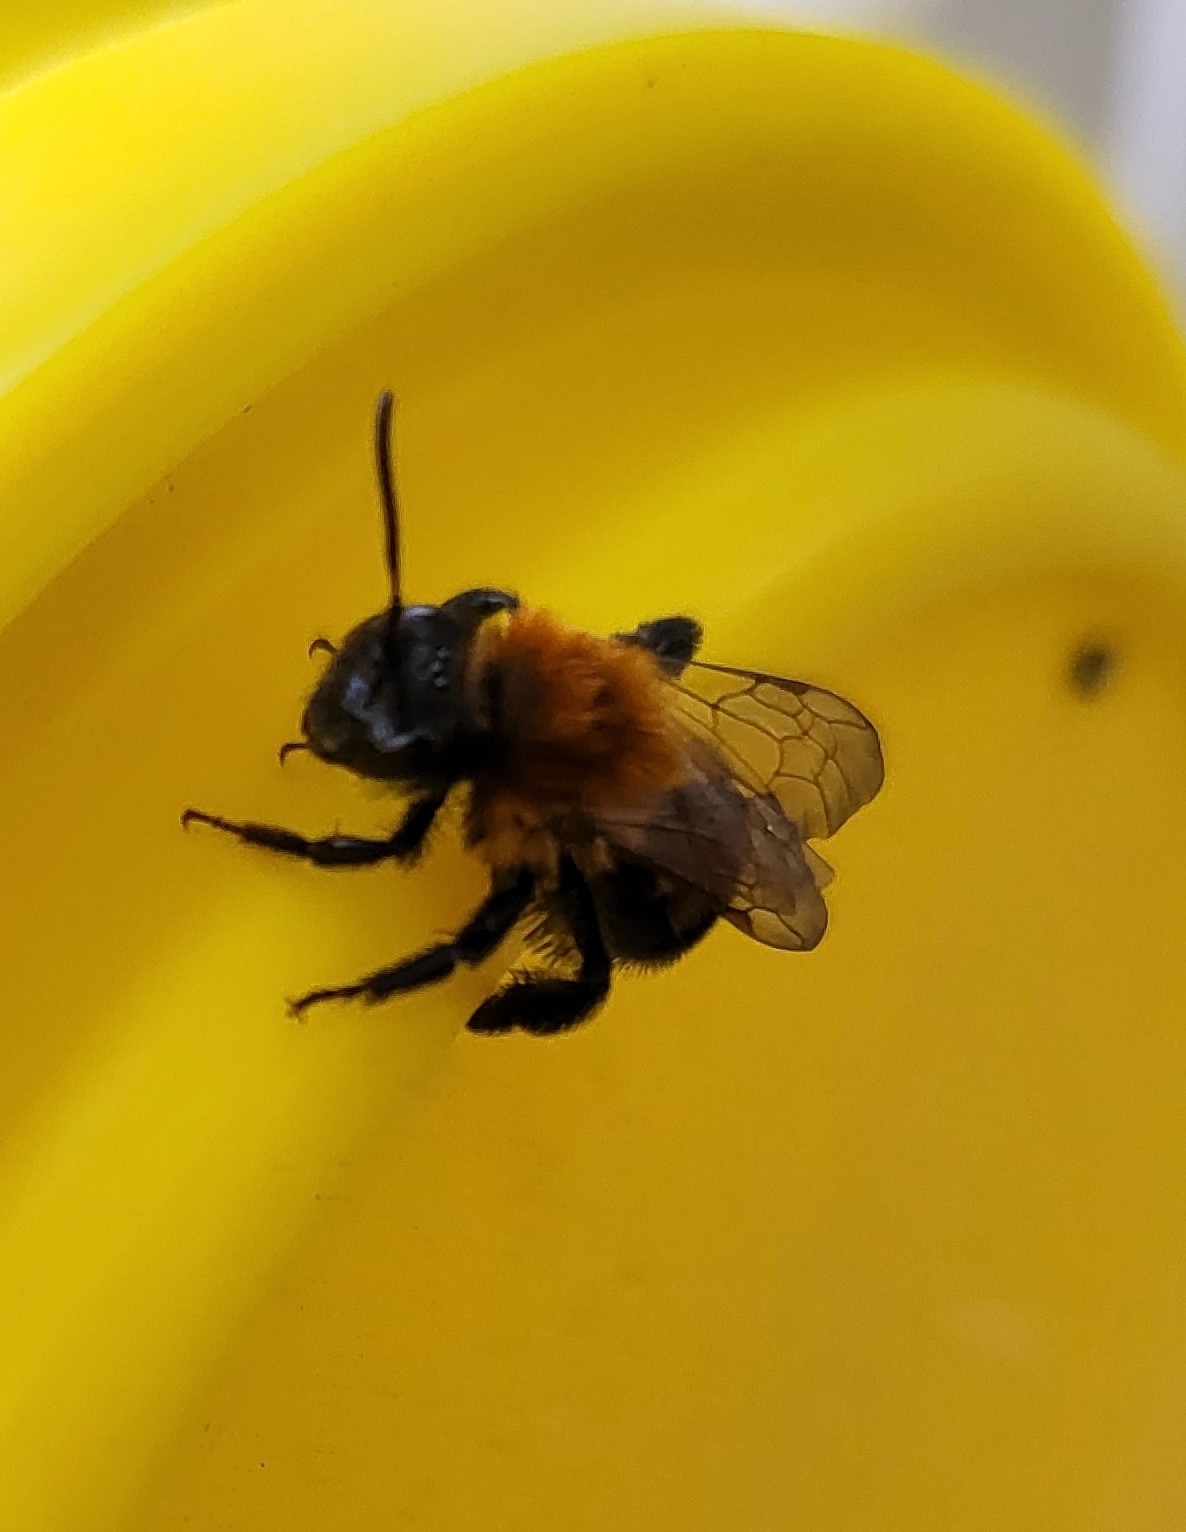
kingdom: Animalia
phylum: Arthropoda
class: Insecta
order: Hymenoptera
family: Andrenidae
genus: Andrena
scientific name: Andrena milwaukeensis
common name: Milwaukee mining bee
